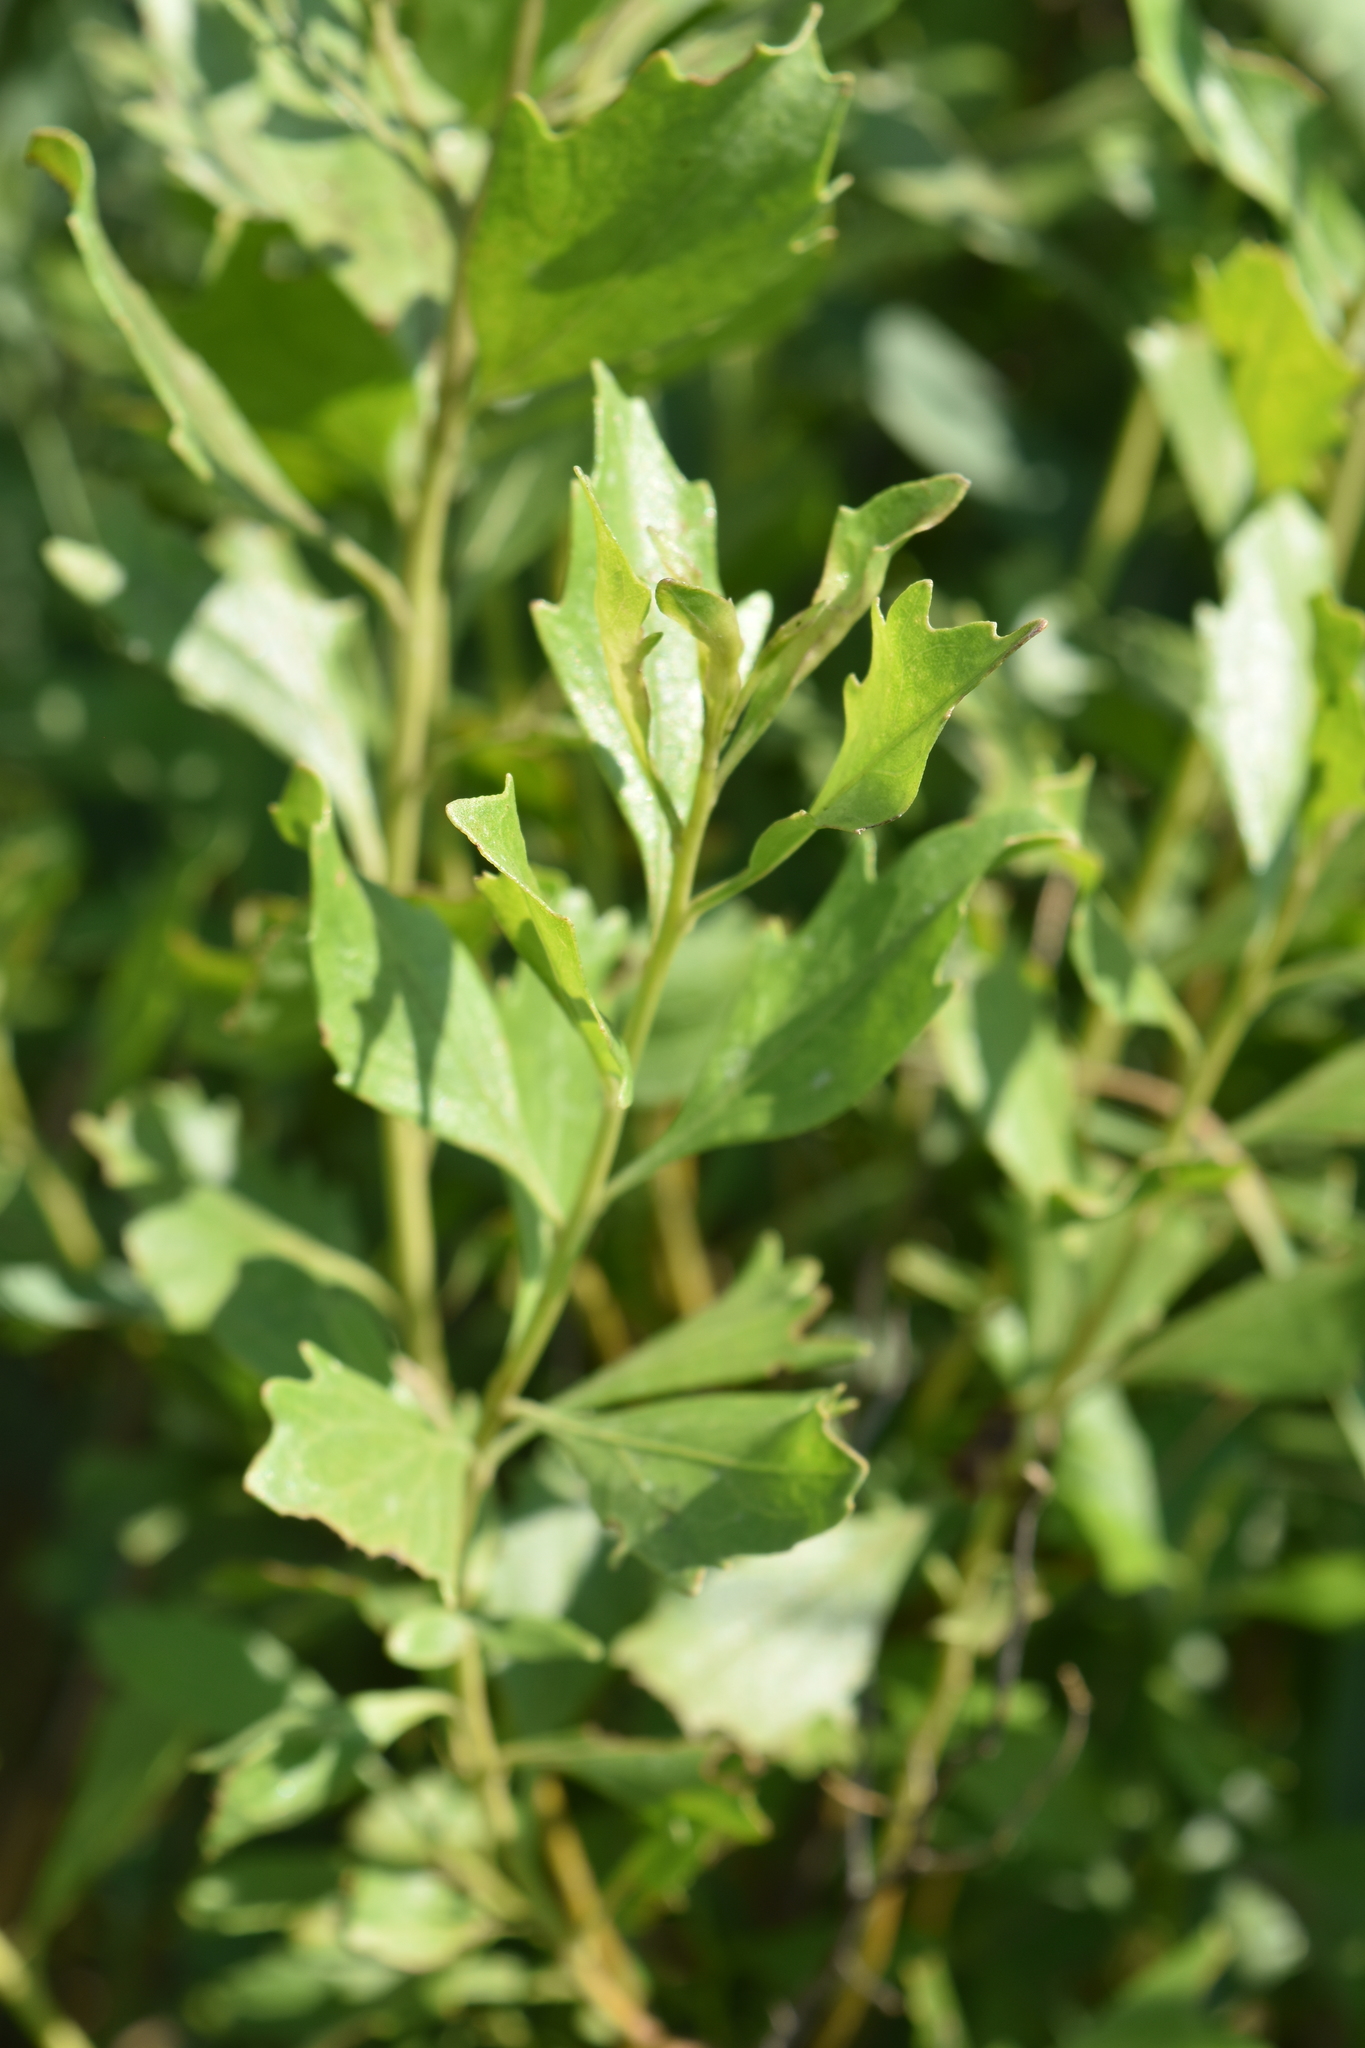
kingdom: Plantae
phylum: Tracheophyta
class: Magnoliopsida
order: Asterales
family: Asteraceae
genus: Baccharis
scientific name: Baccharis halimifolia
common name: Eastern baccharis
